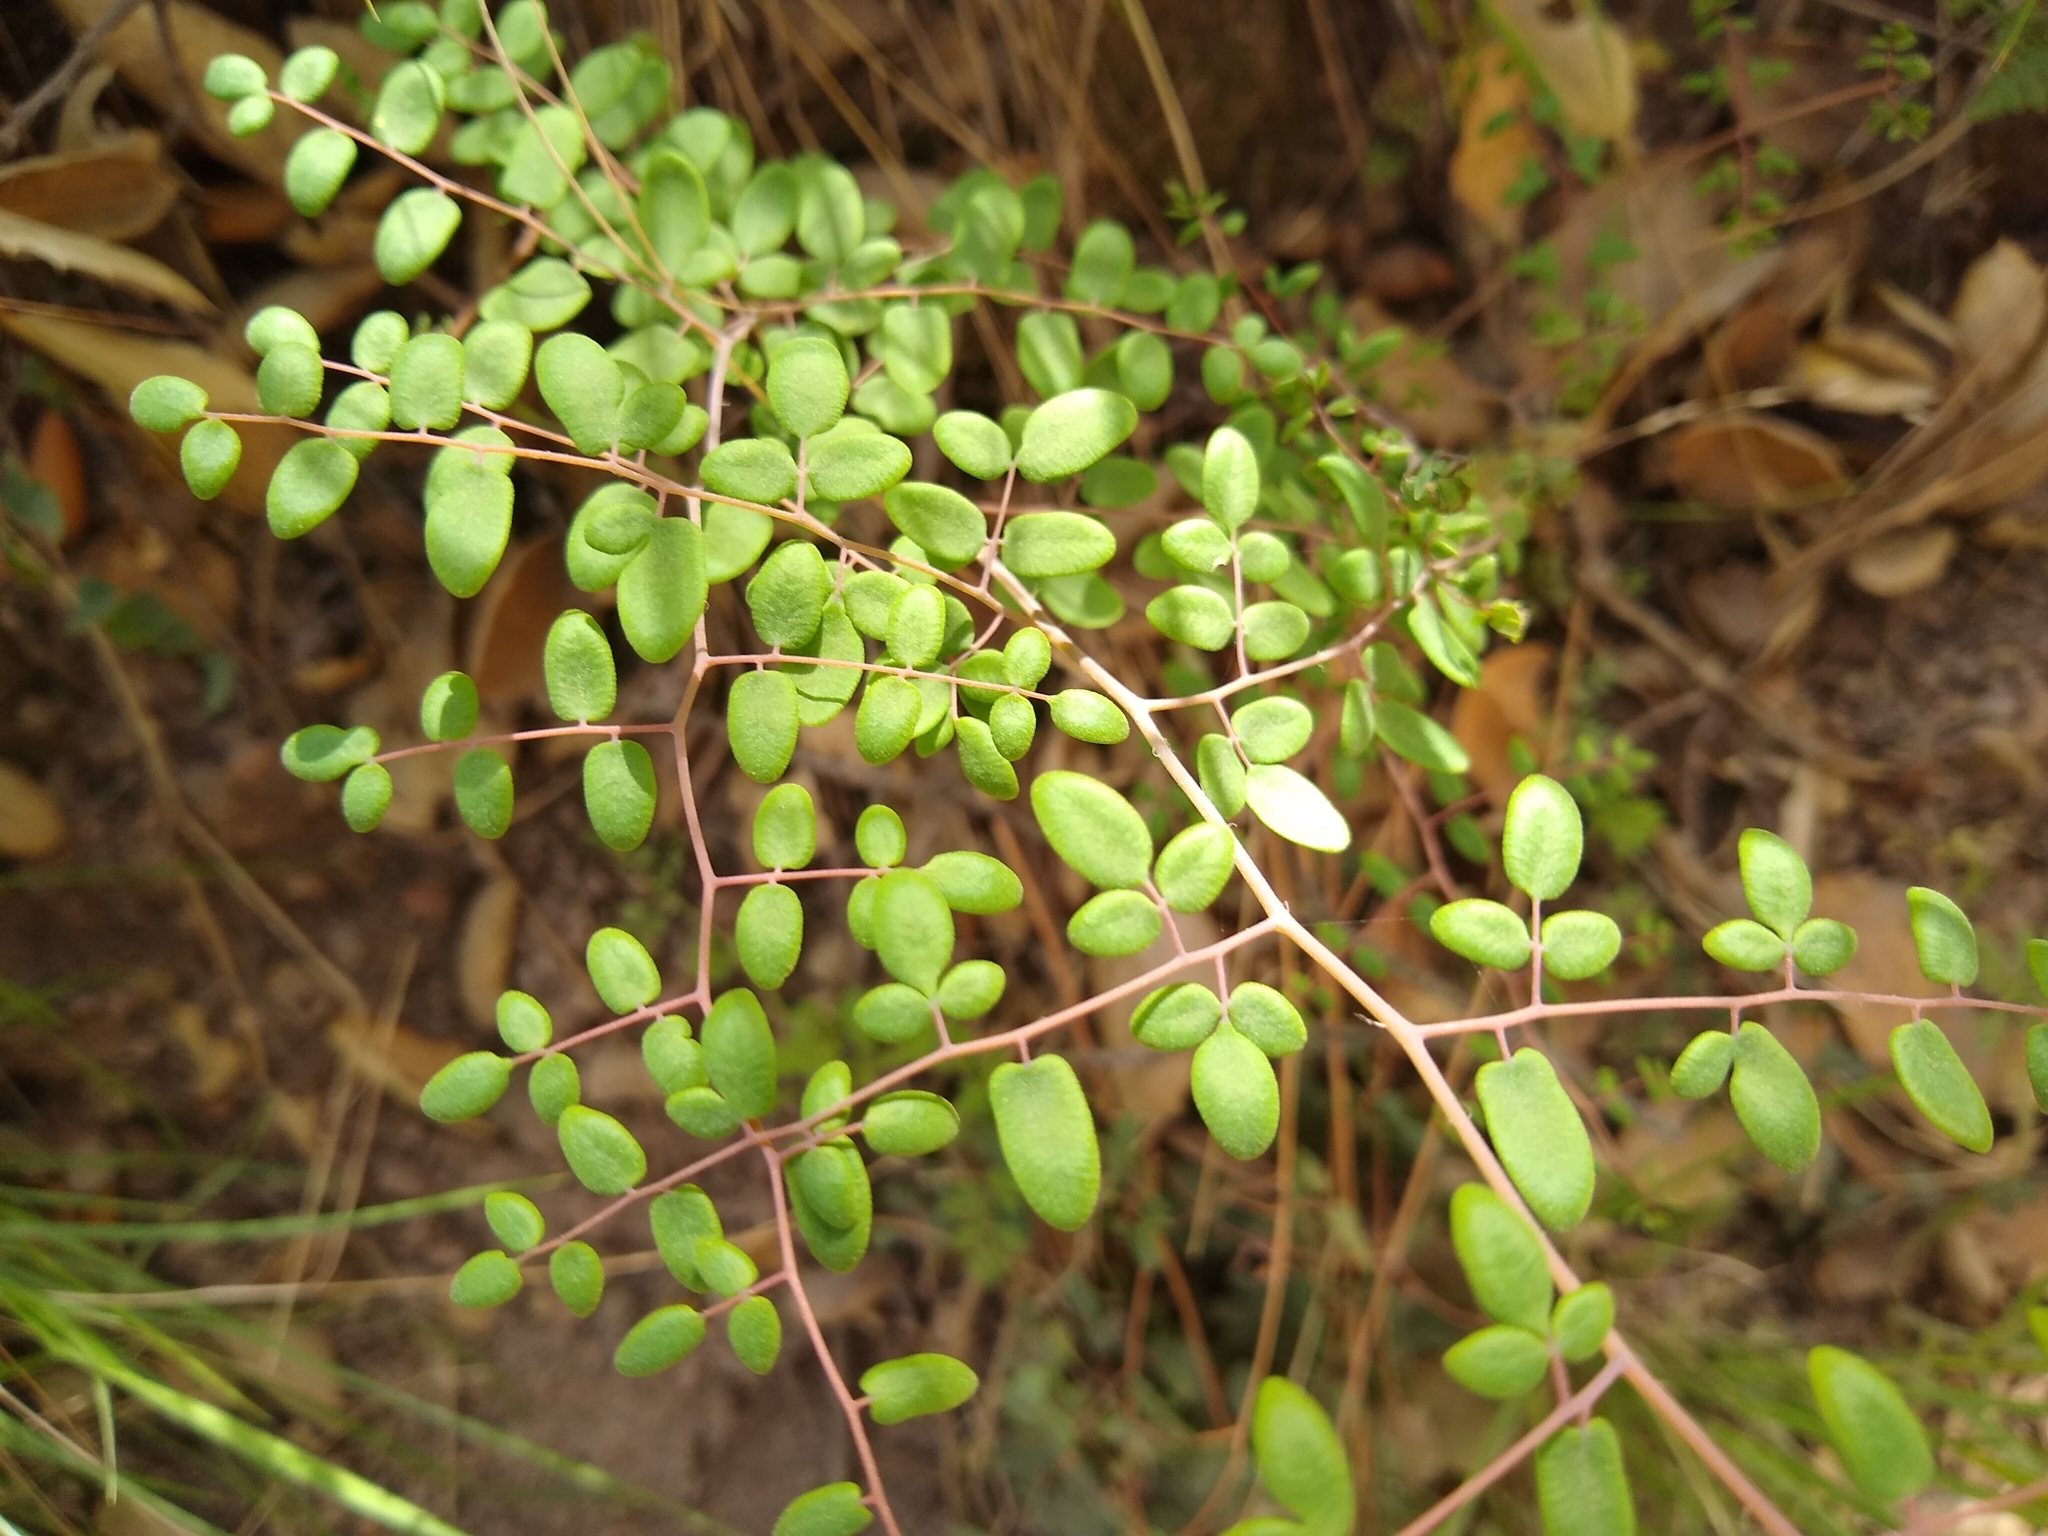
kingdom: Plantae
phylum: Tracheophyta
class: Polypodiopsida
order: Polypodiales
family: Pteridaceae
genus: Pellaea
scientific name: Pellaea andromedifolia
